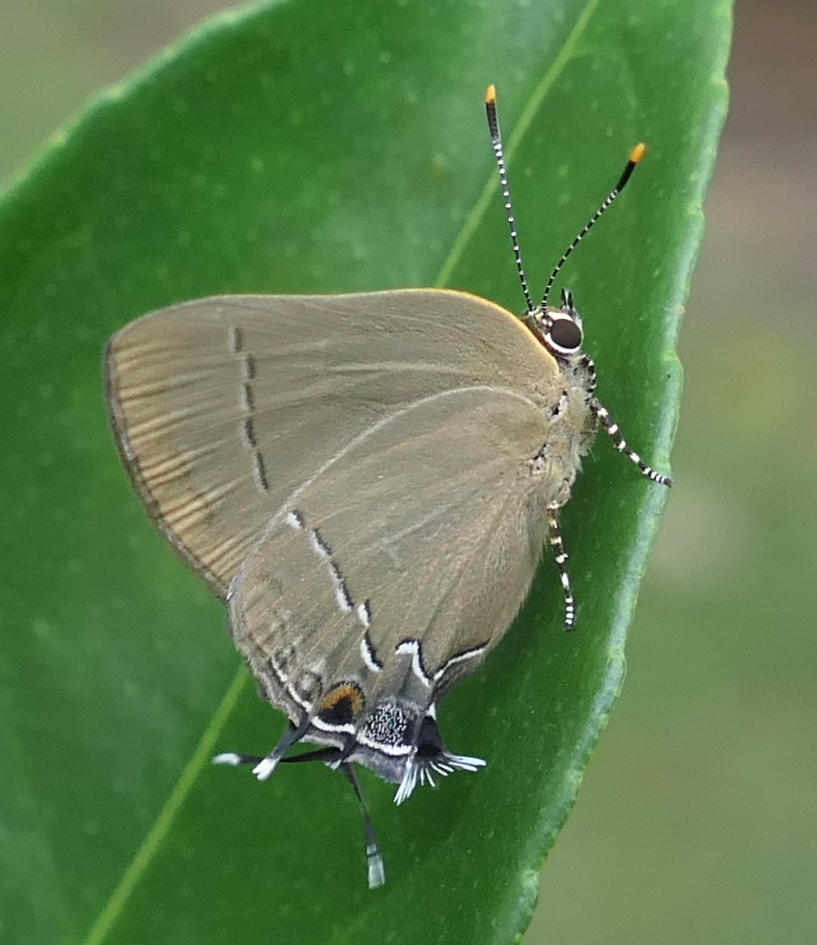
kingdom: Animalia
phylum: Arthropoda
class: Insecta
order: Lepidoptera
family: Lycaenidae
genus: Ziegleria
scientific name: Ziegleria hesperitis
